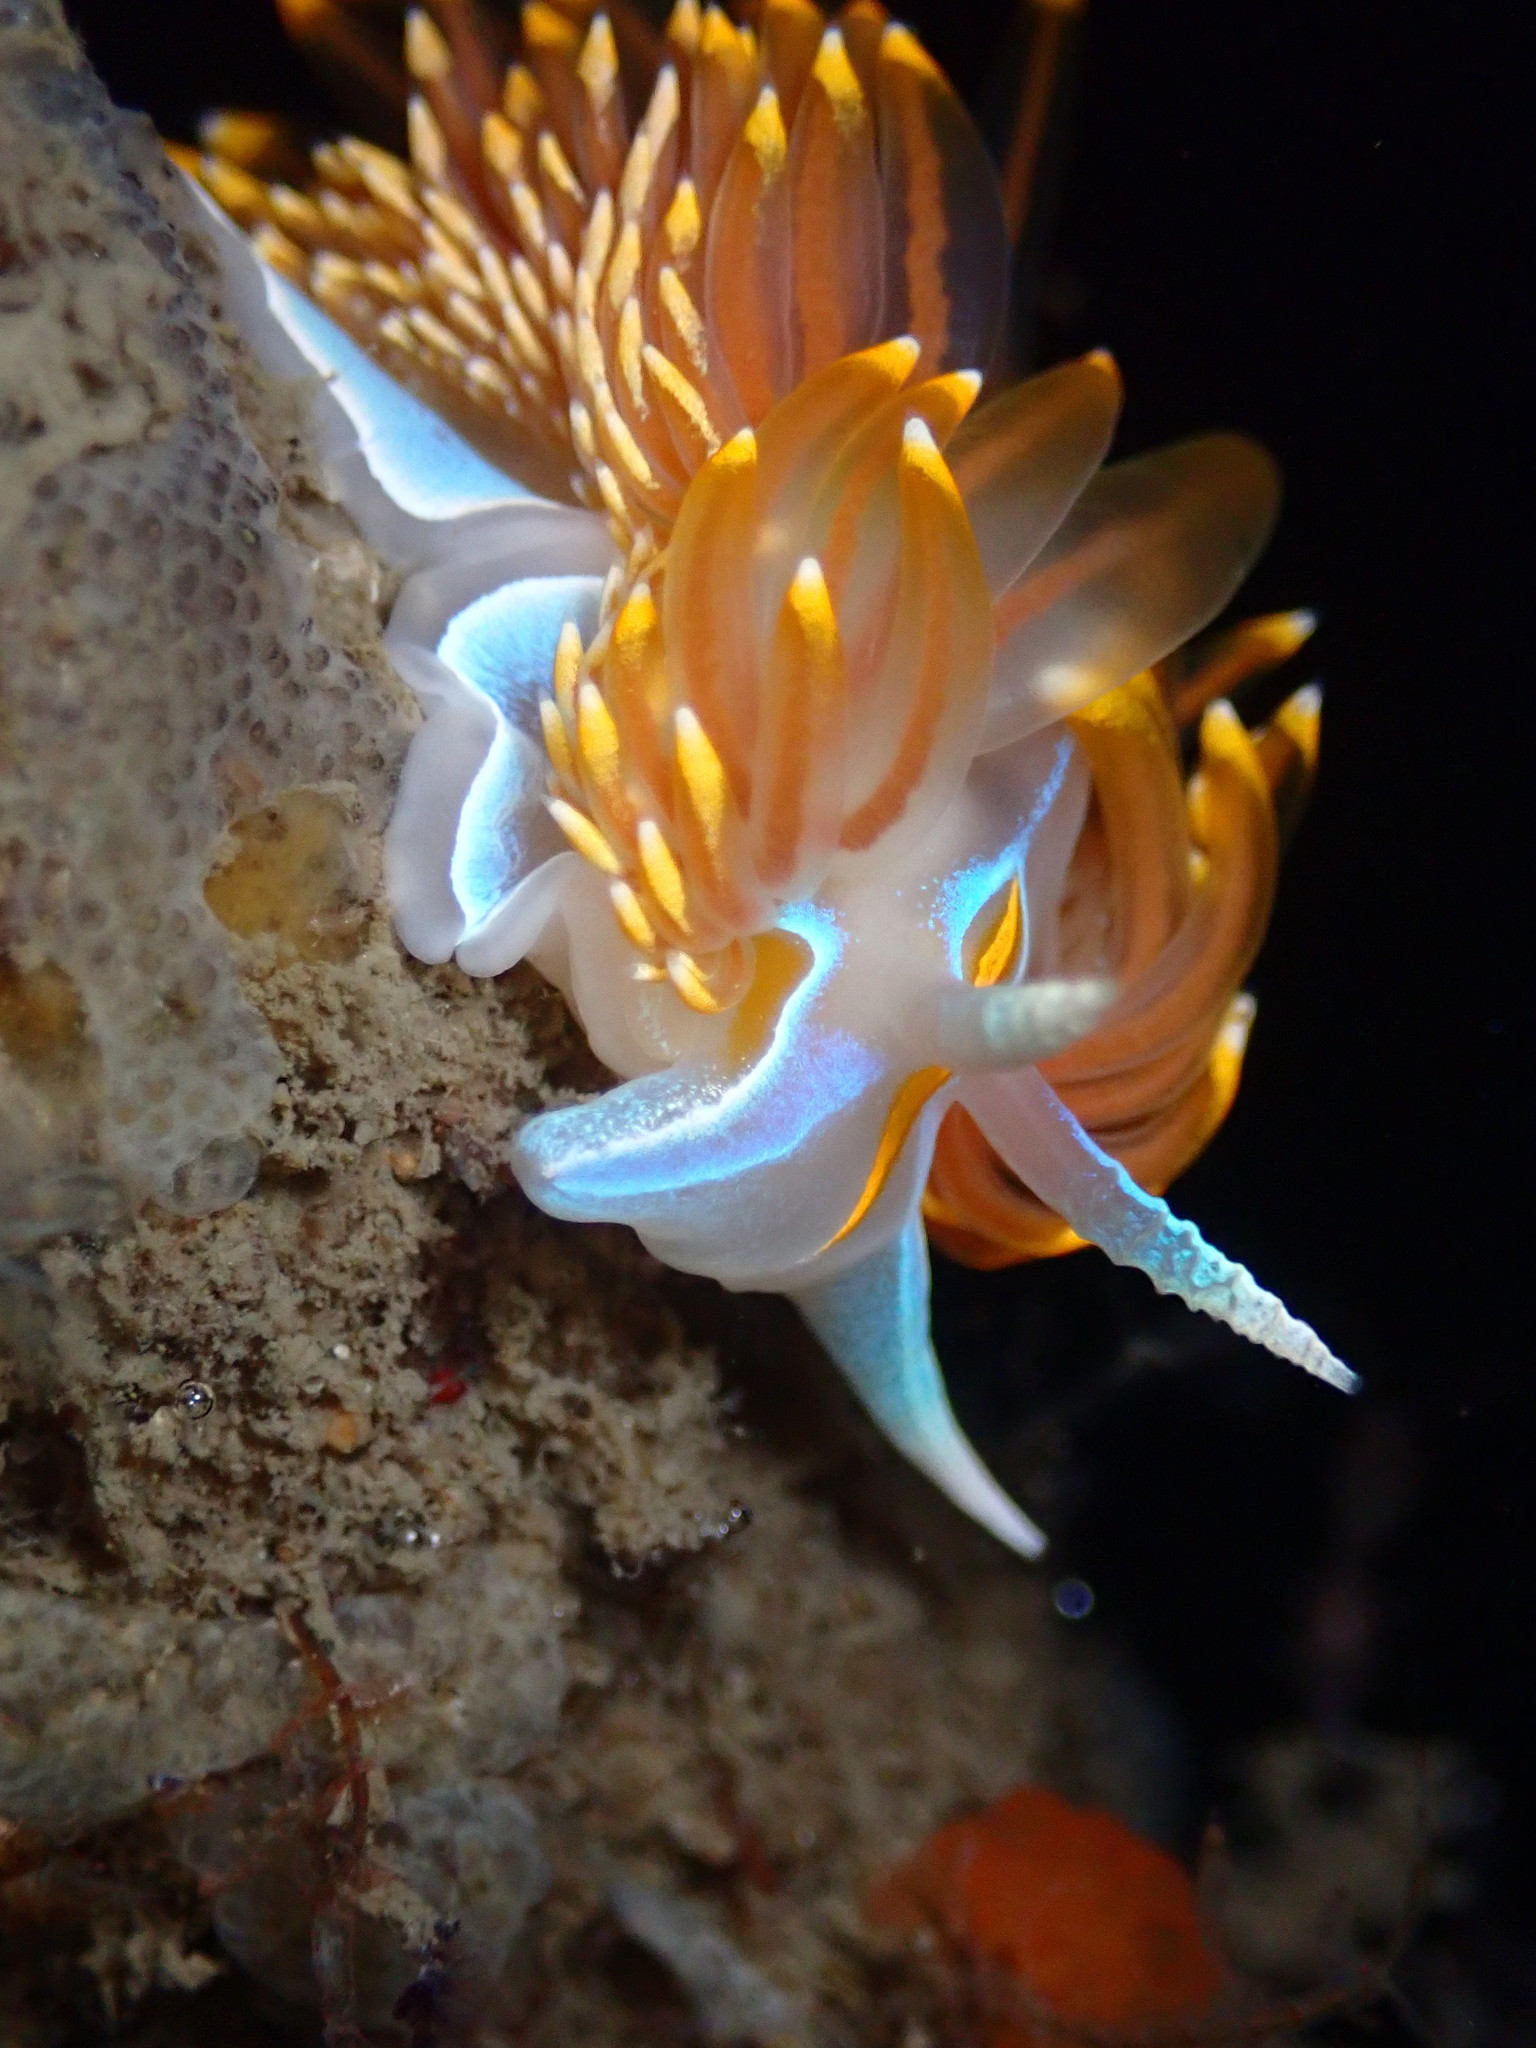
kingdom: Animalia
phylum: Mollusca
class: Gastropoda
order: Nudibranchia
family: Myrrhinidae
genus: Hermissenda
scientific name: Hermissenda opalescens
